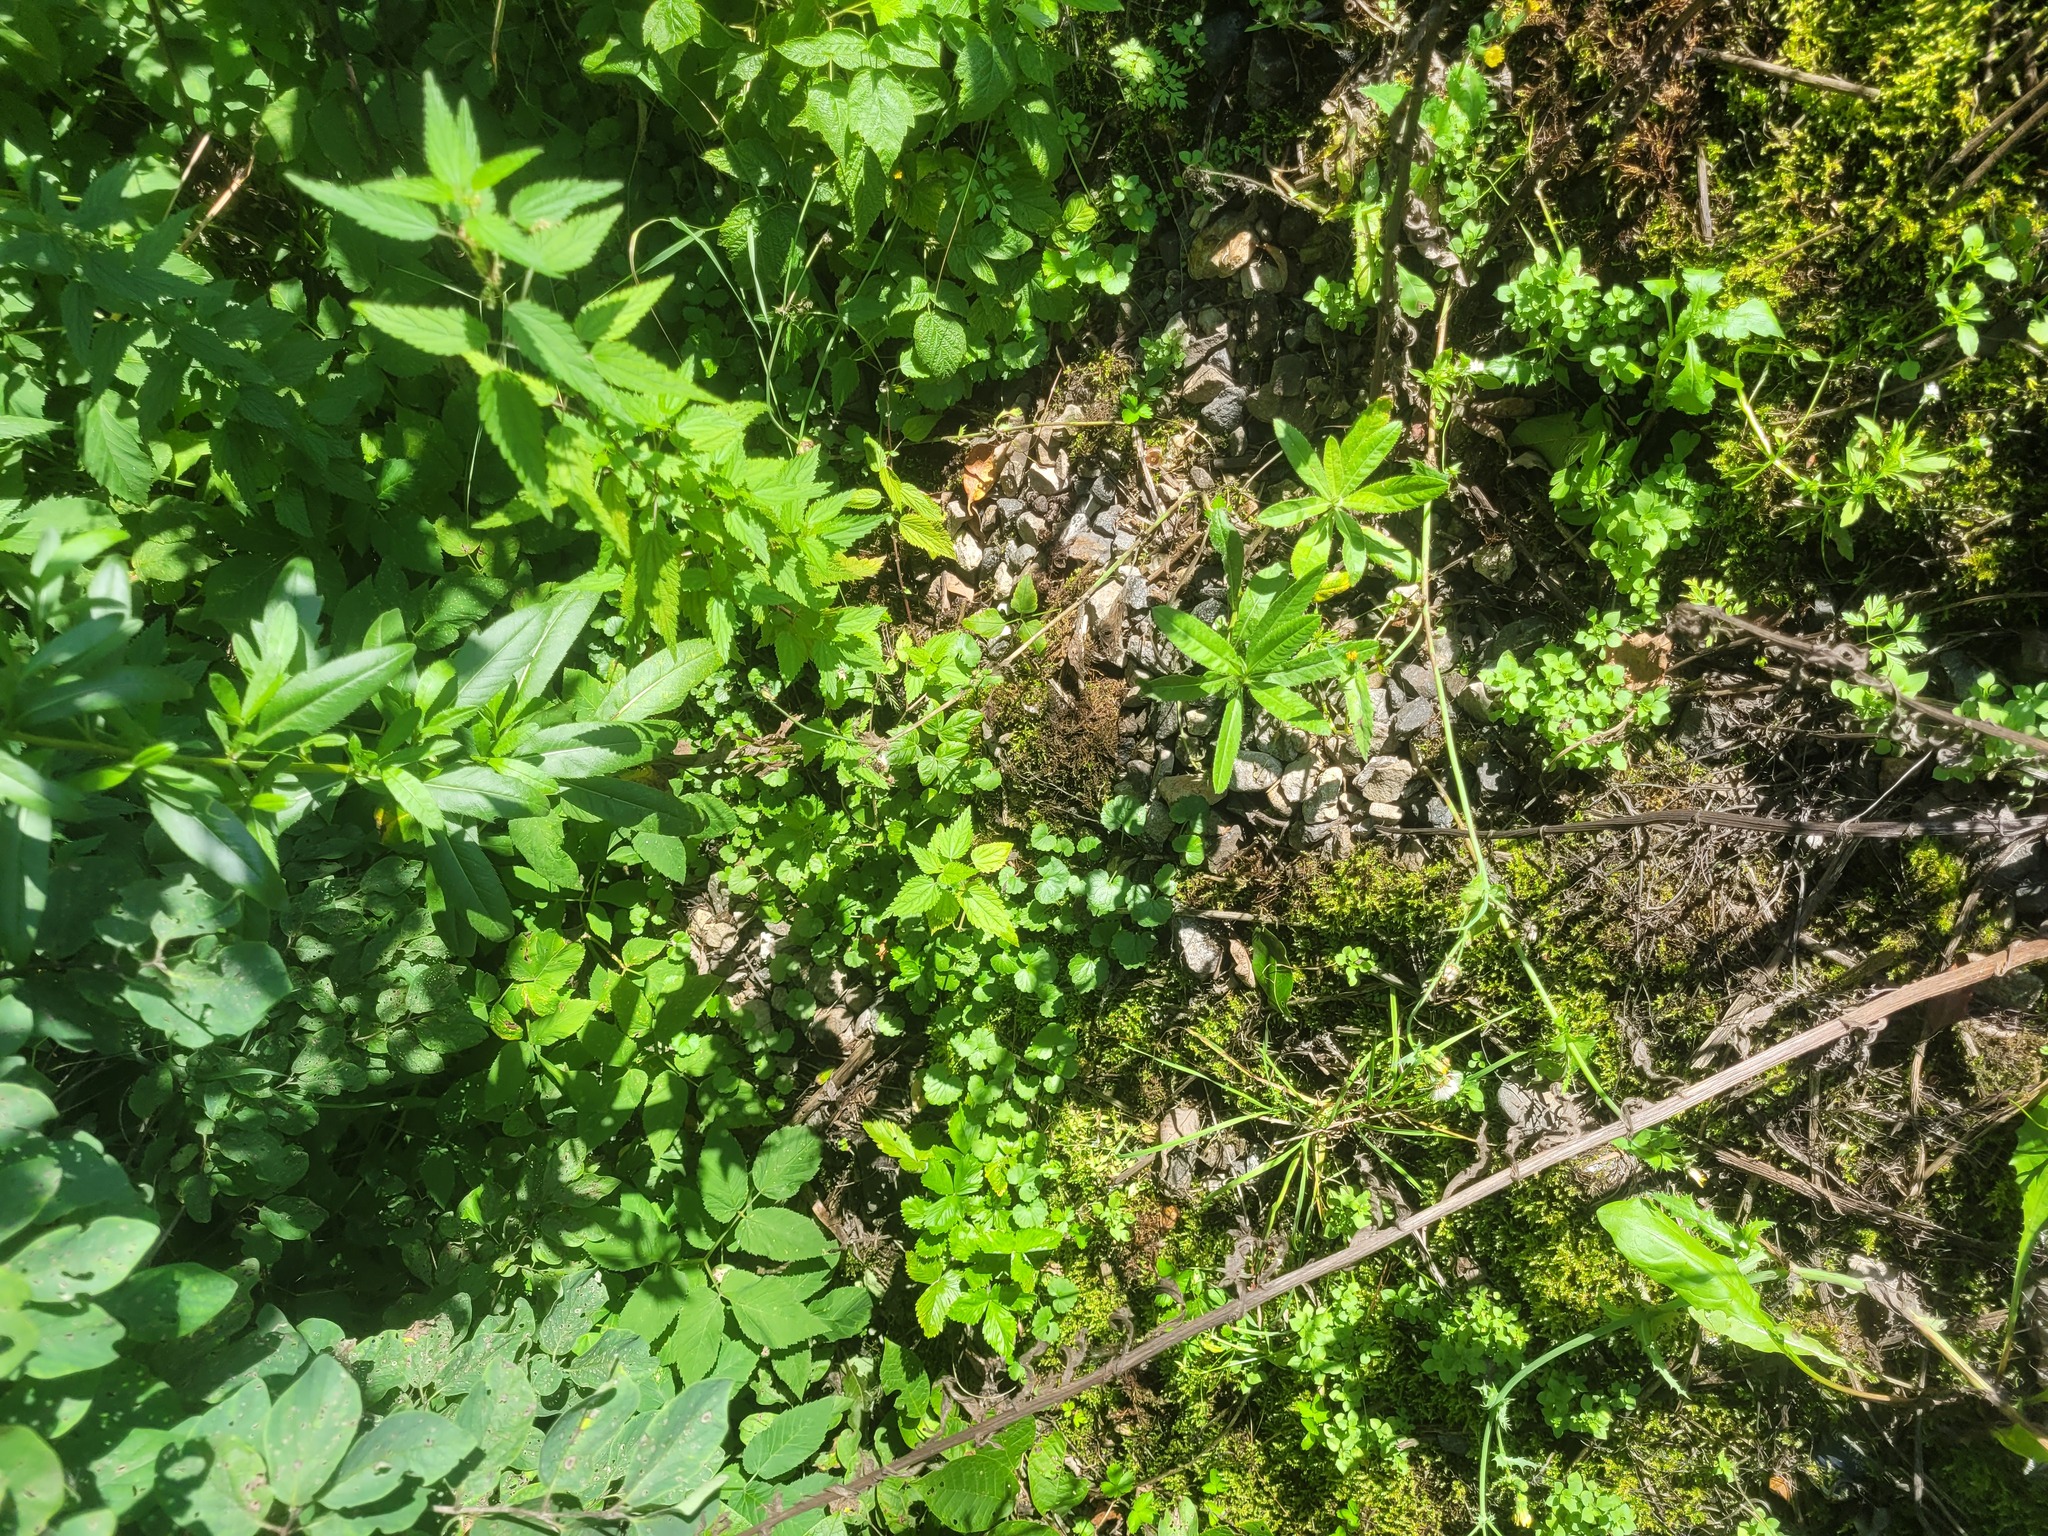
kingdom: Plantae
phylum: Tracheophyta
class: Magnoliopsida
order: Lamiales
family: Lamiaceae
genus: Glechoma
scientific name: Glechoma hederacea
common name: Ground ivy
